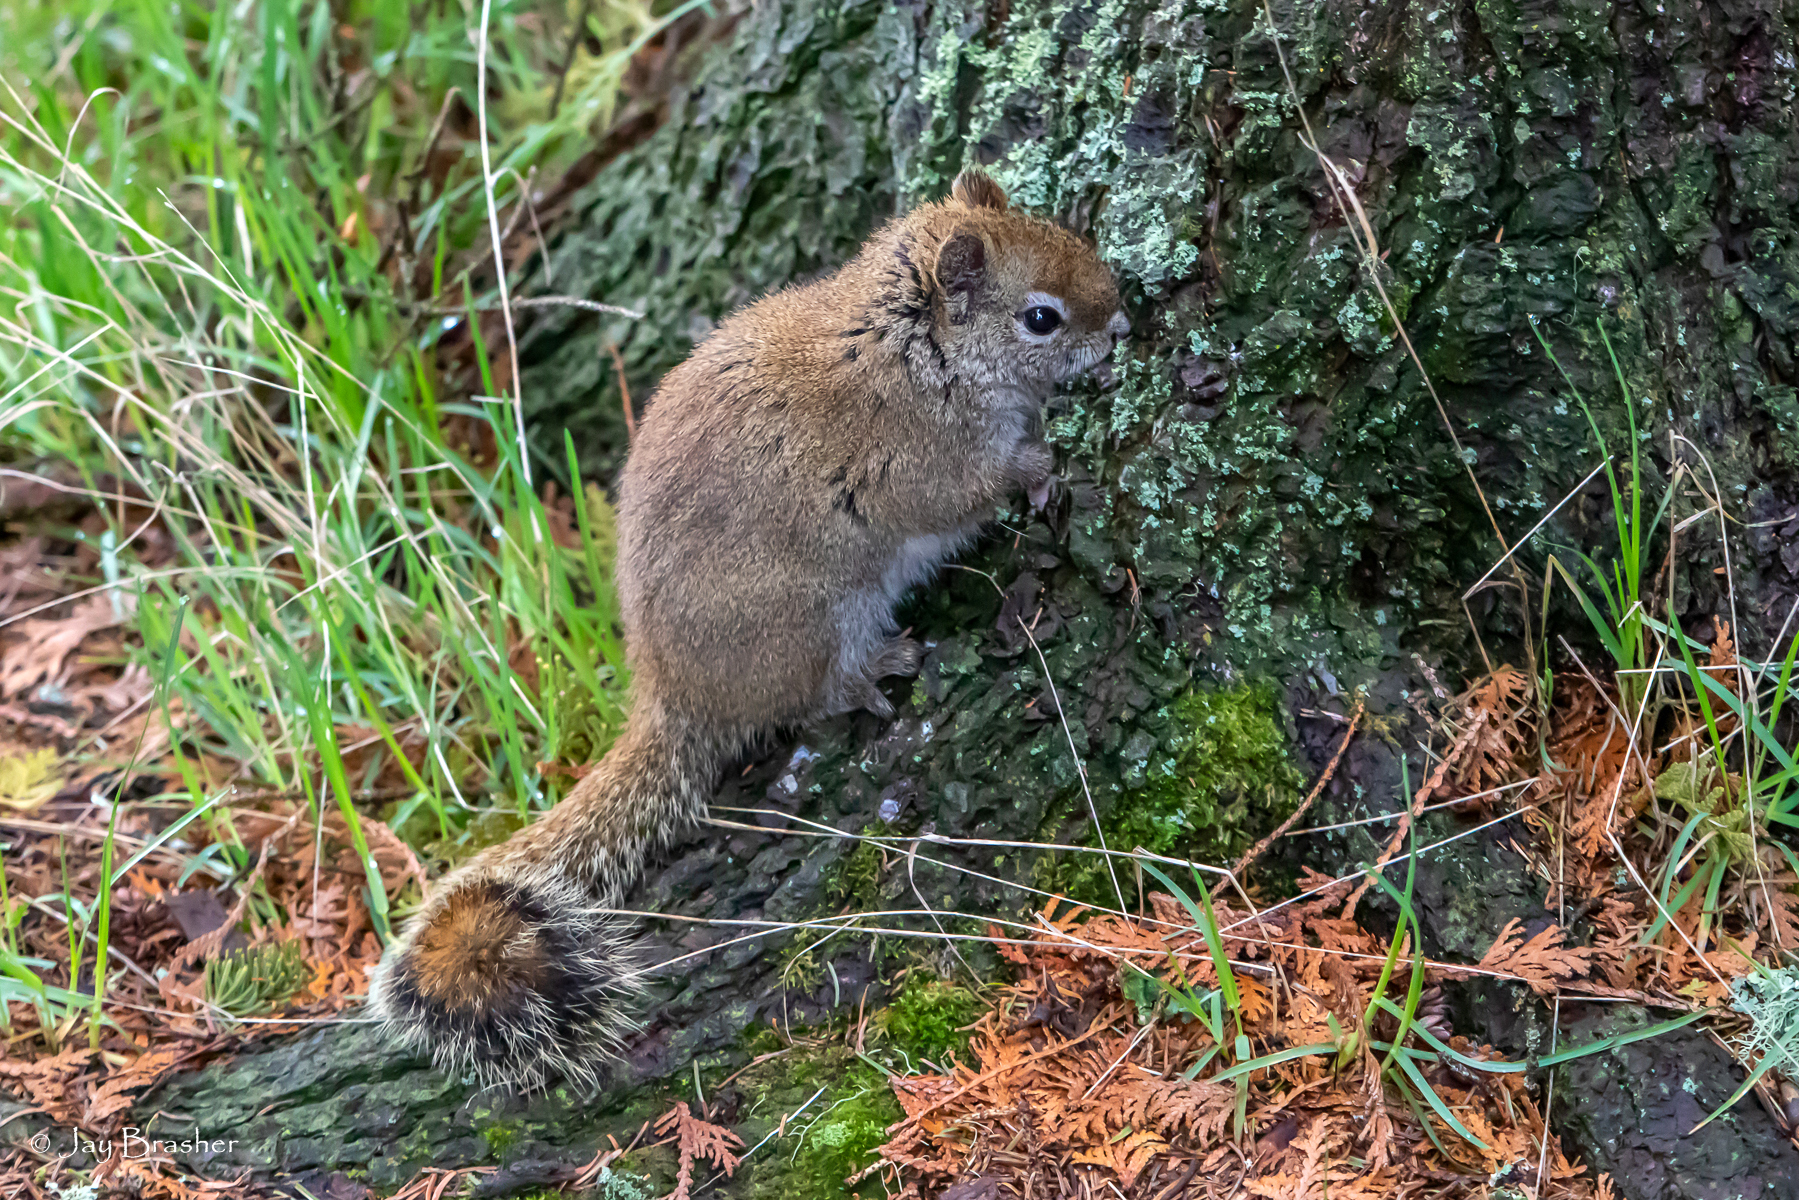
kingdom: Animalia
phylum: Chordata
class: Mammalia
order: Rodentia
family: Sciuridae
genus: Tamiasciurus
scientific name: Tamiasciurus hudsonicus
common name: Red squirrel
